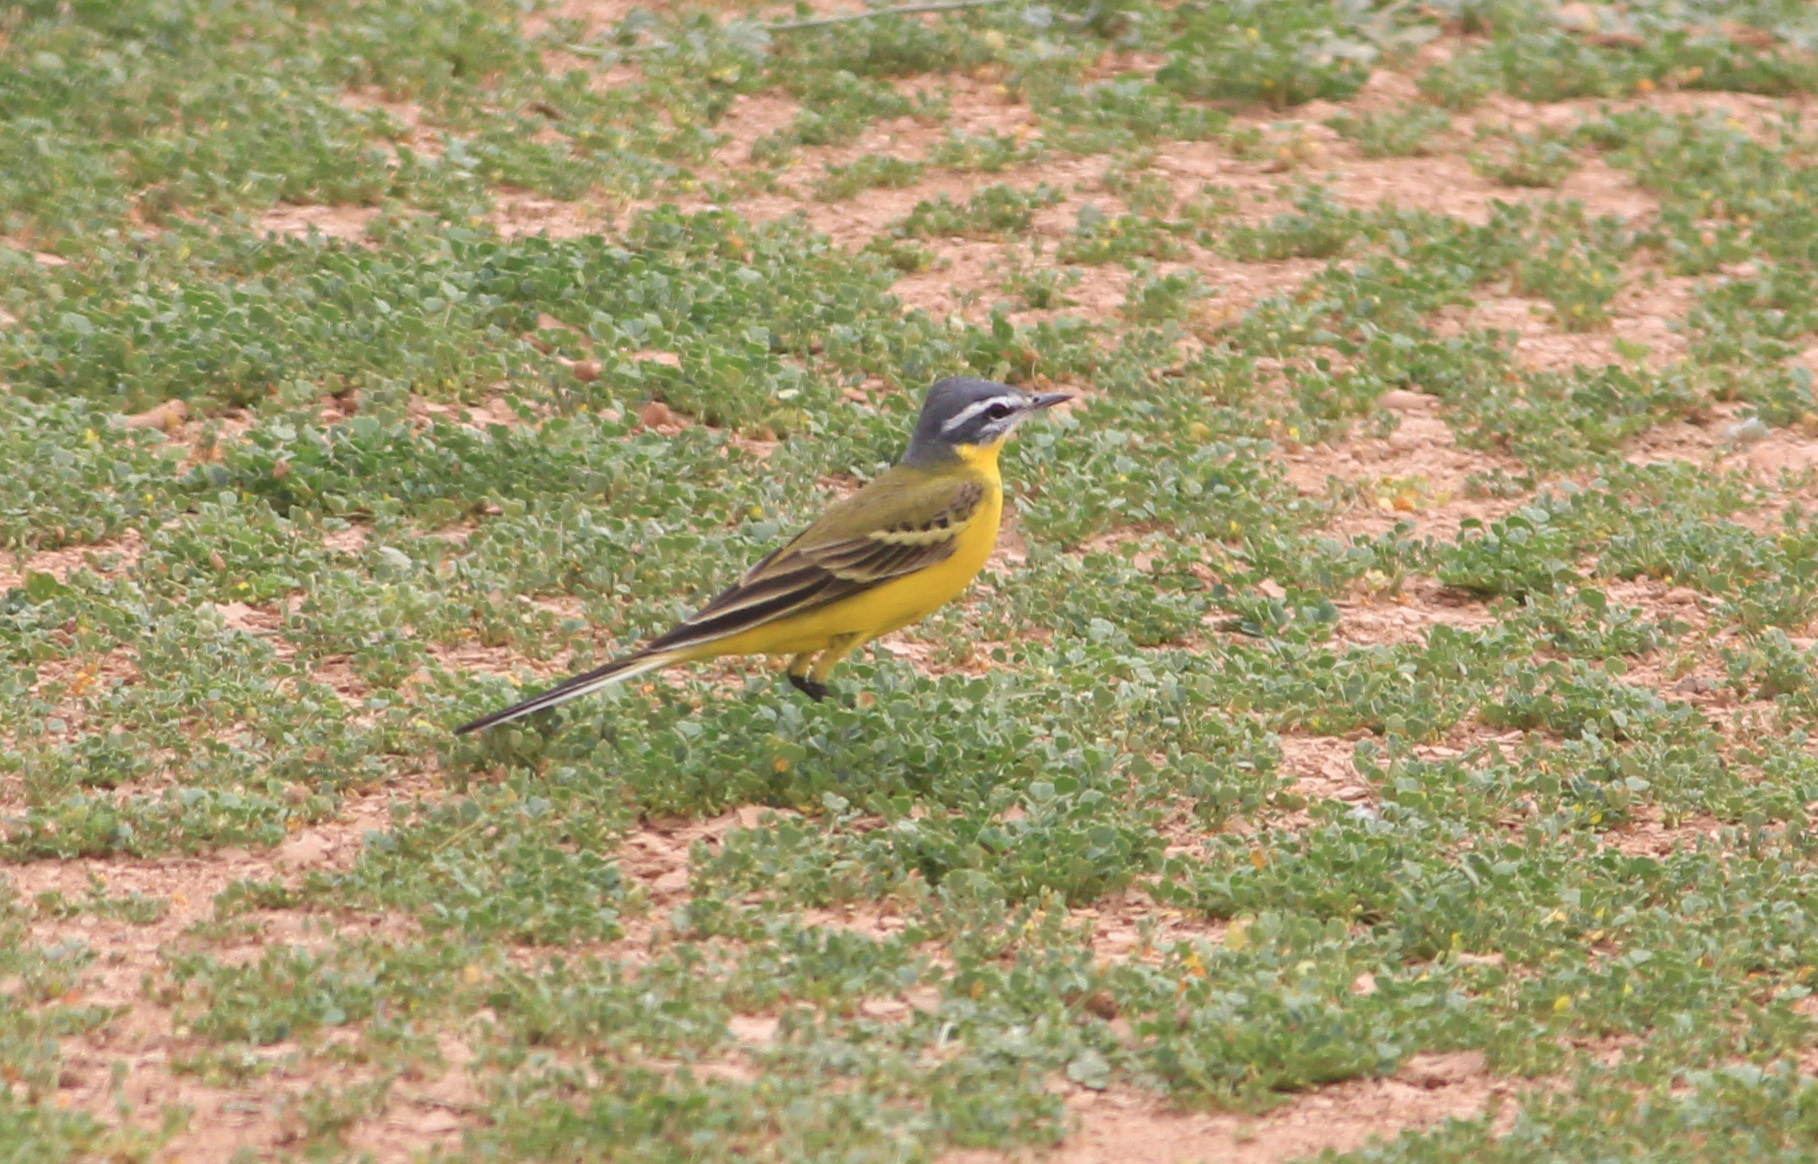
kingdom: Animalia
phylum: Chordata
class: Aves
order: Passeriformes
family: Motacillidae
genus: Motacilla
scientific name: Motacilla flava
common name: Western yellow wagtail
